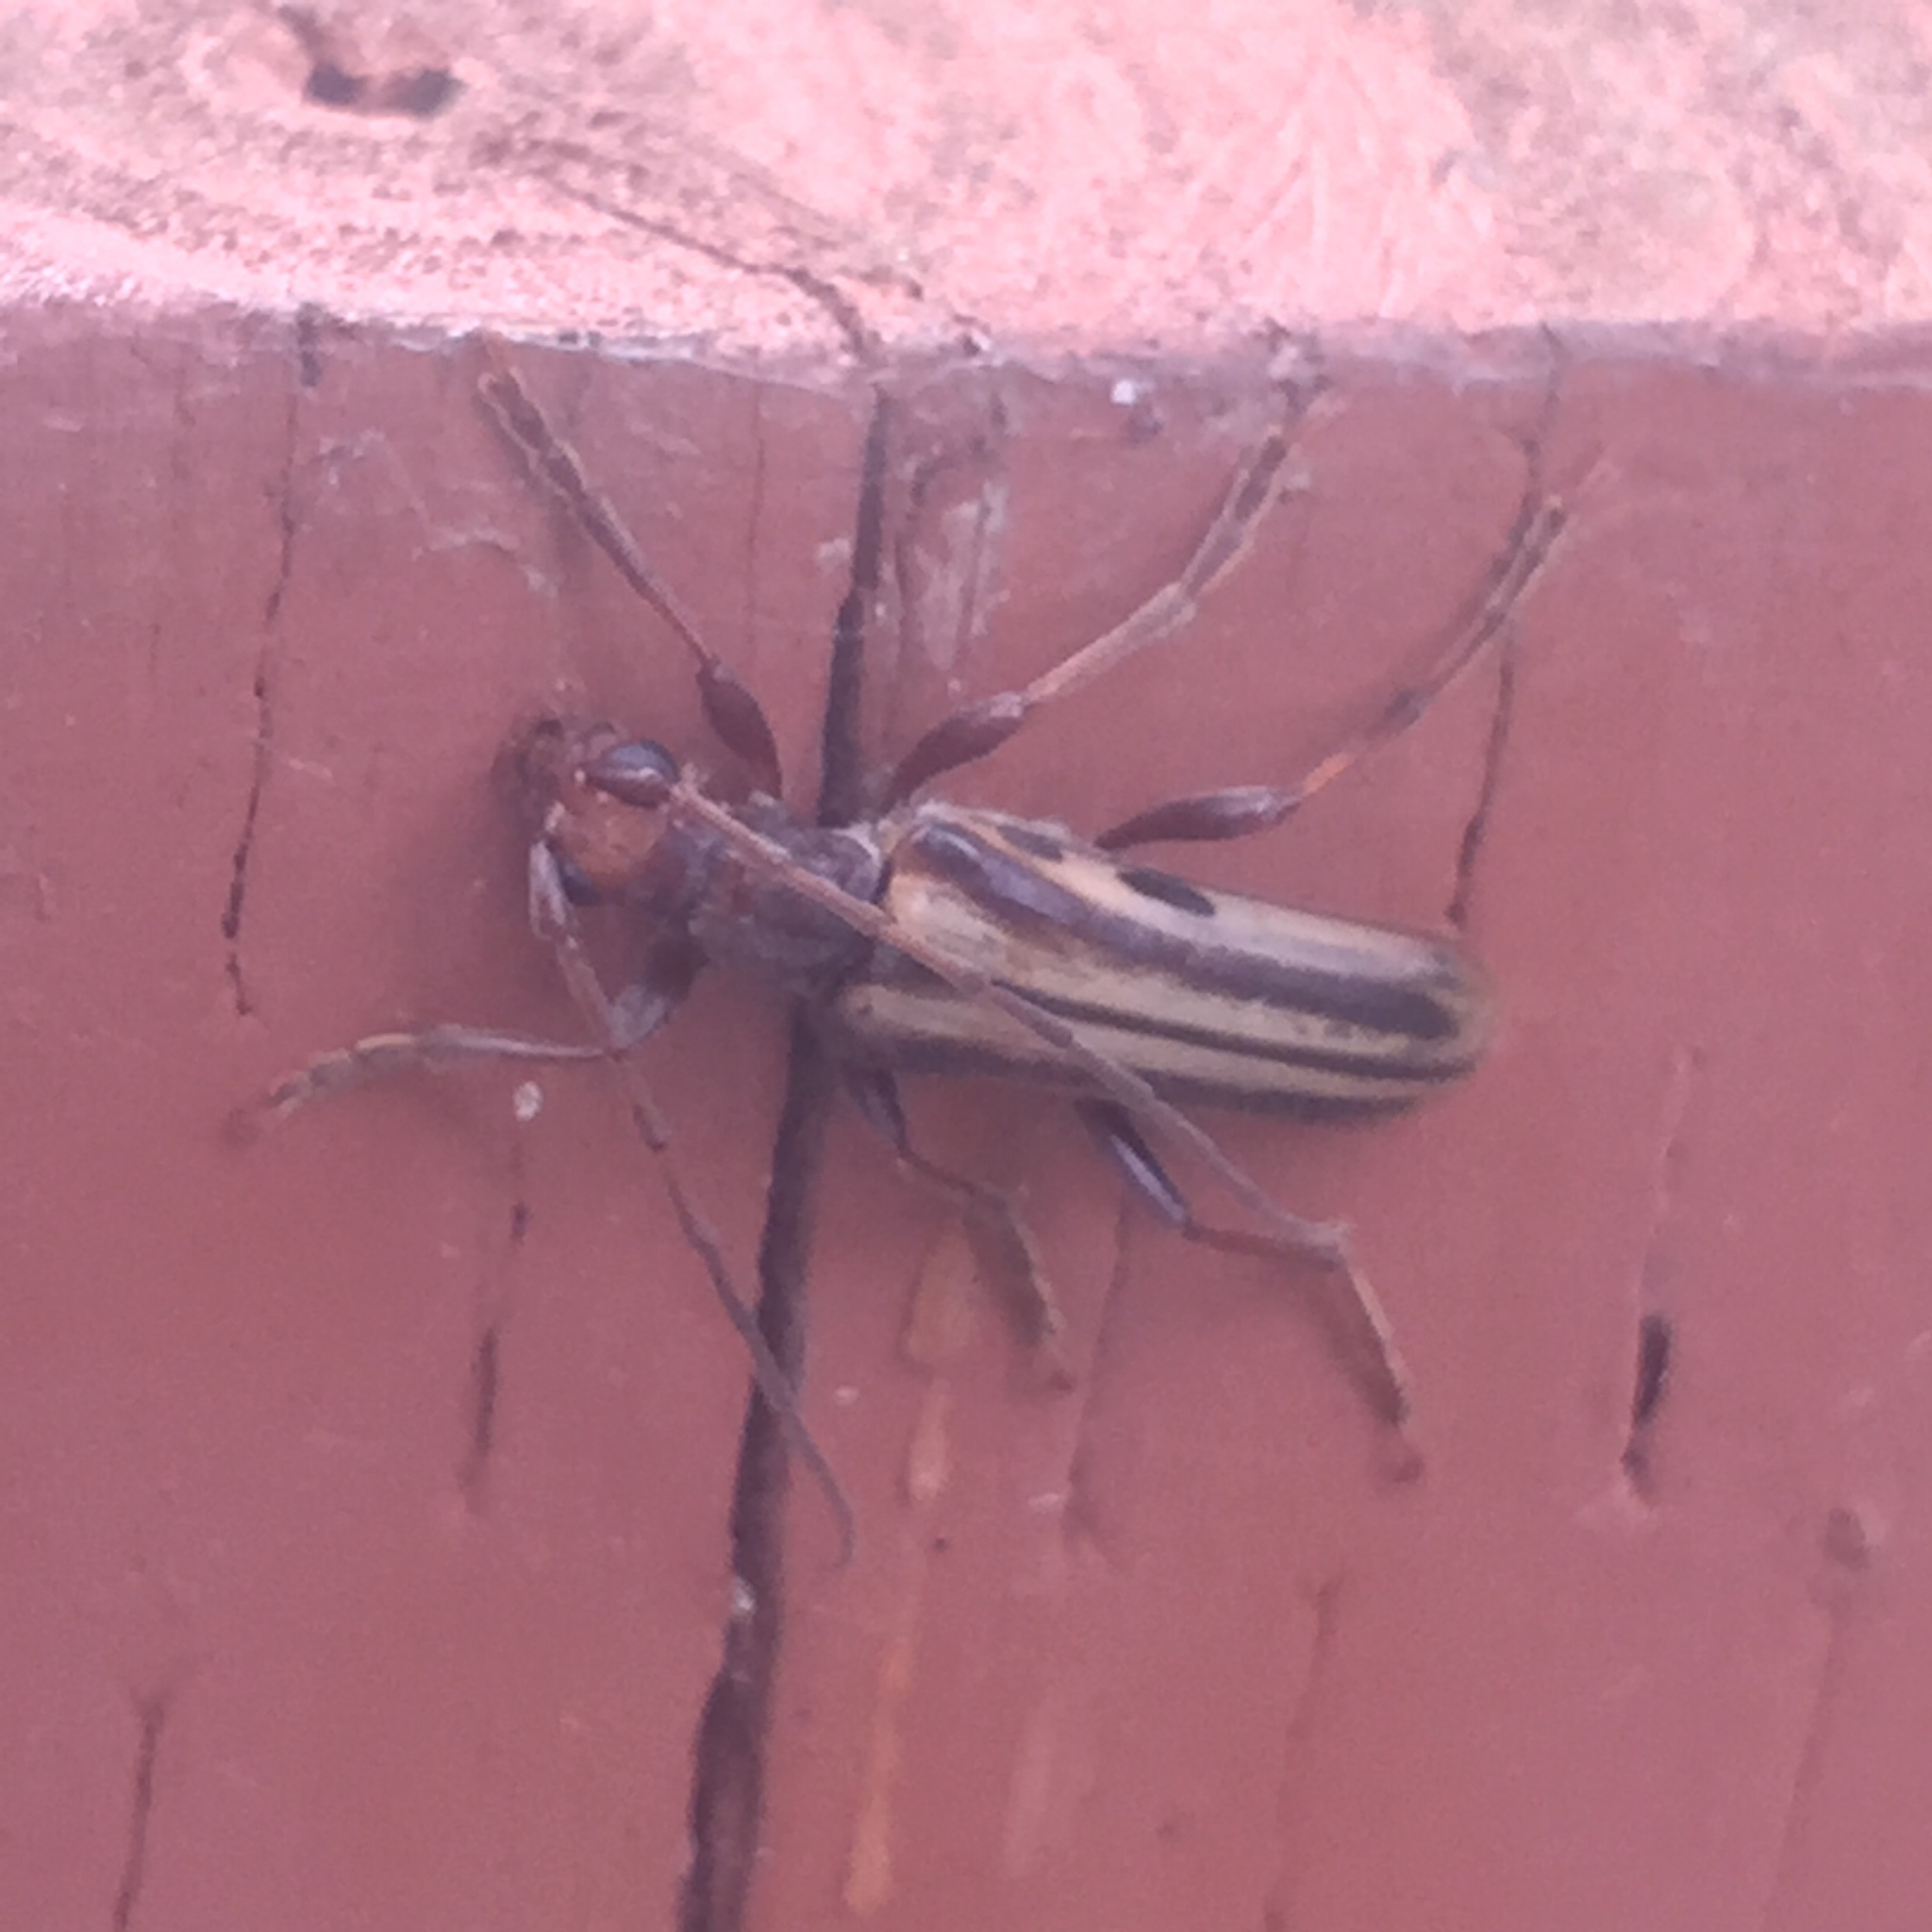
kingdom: Animalia
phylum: Arthropoda
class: Insecta
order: Coleoptera
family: Cerambycidae
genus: Ortholeptura
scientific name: Ortholeptura insignis
